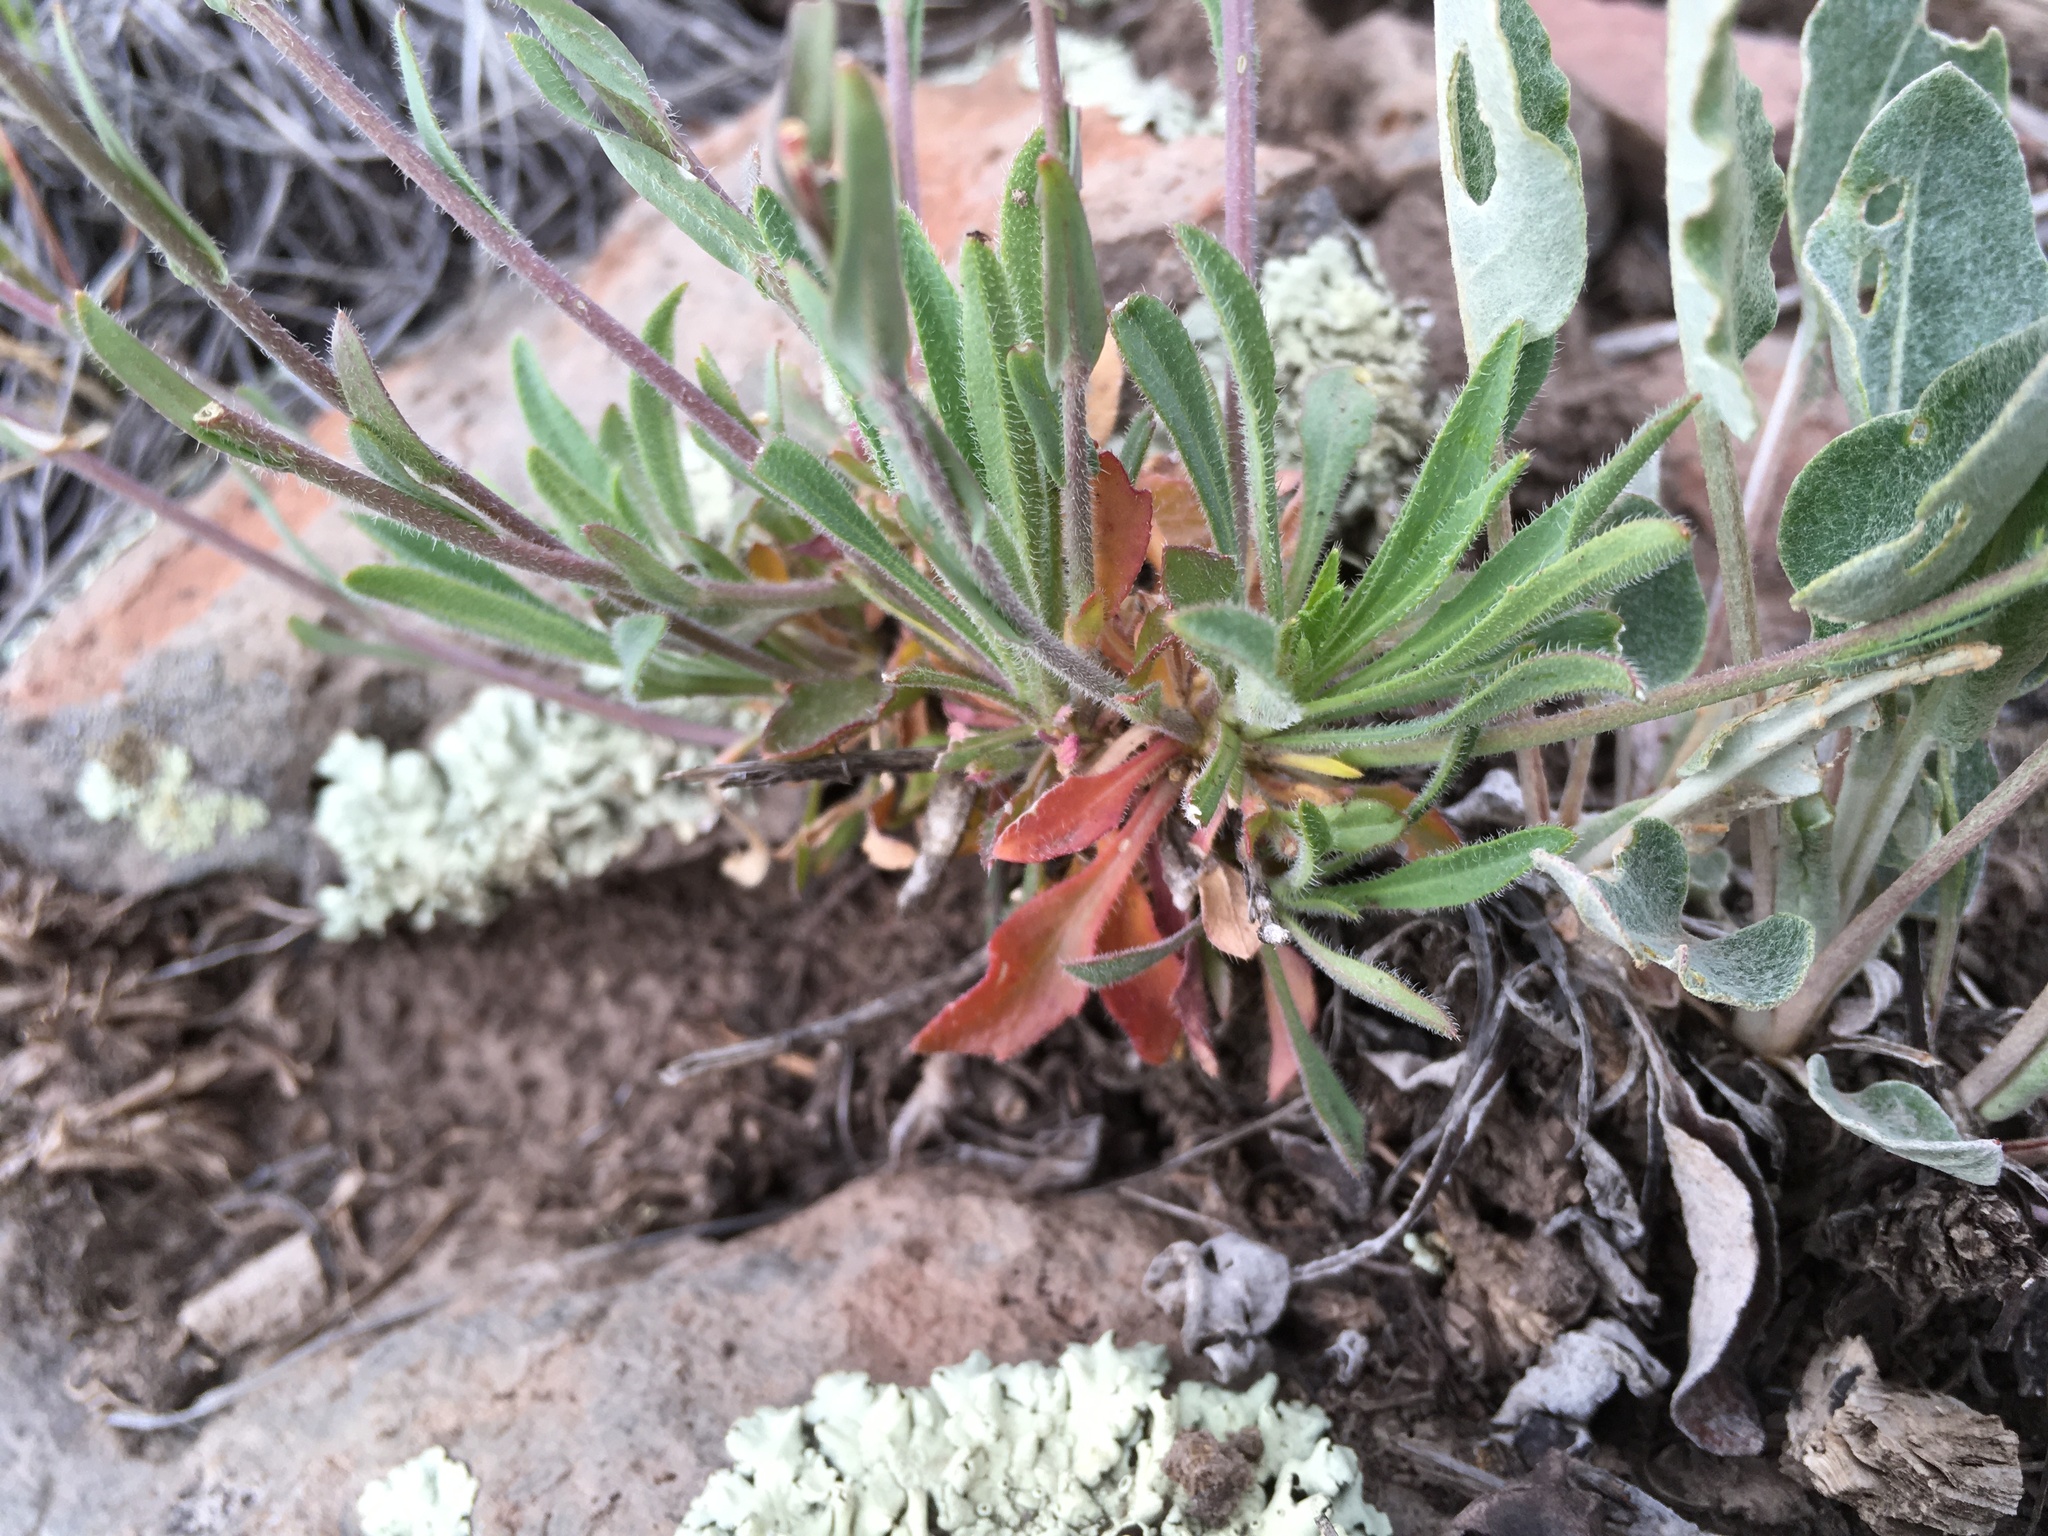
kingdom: Plantae
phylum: Tracheophyta
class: Magnoliopsida
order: Brassicales
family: Brassicaceae
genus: Boechera
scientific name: Boechera perennans
